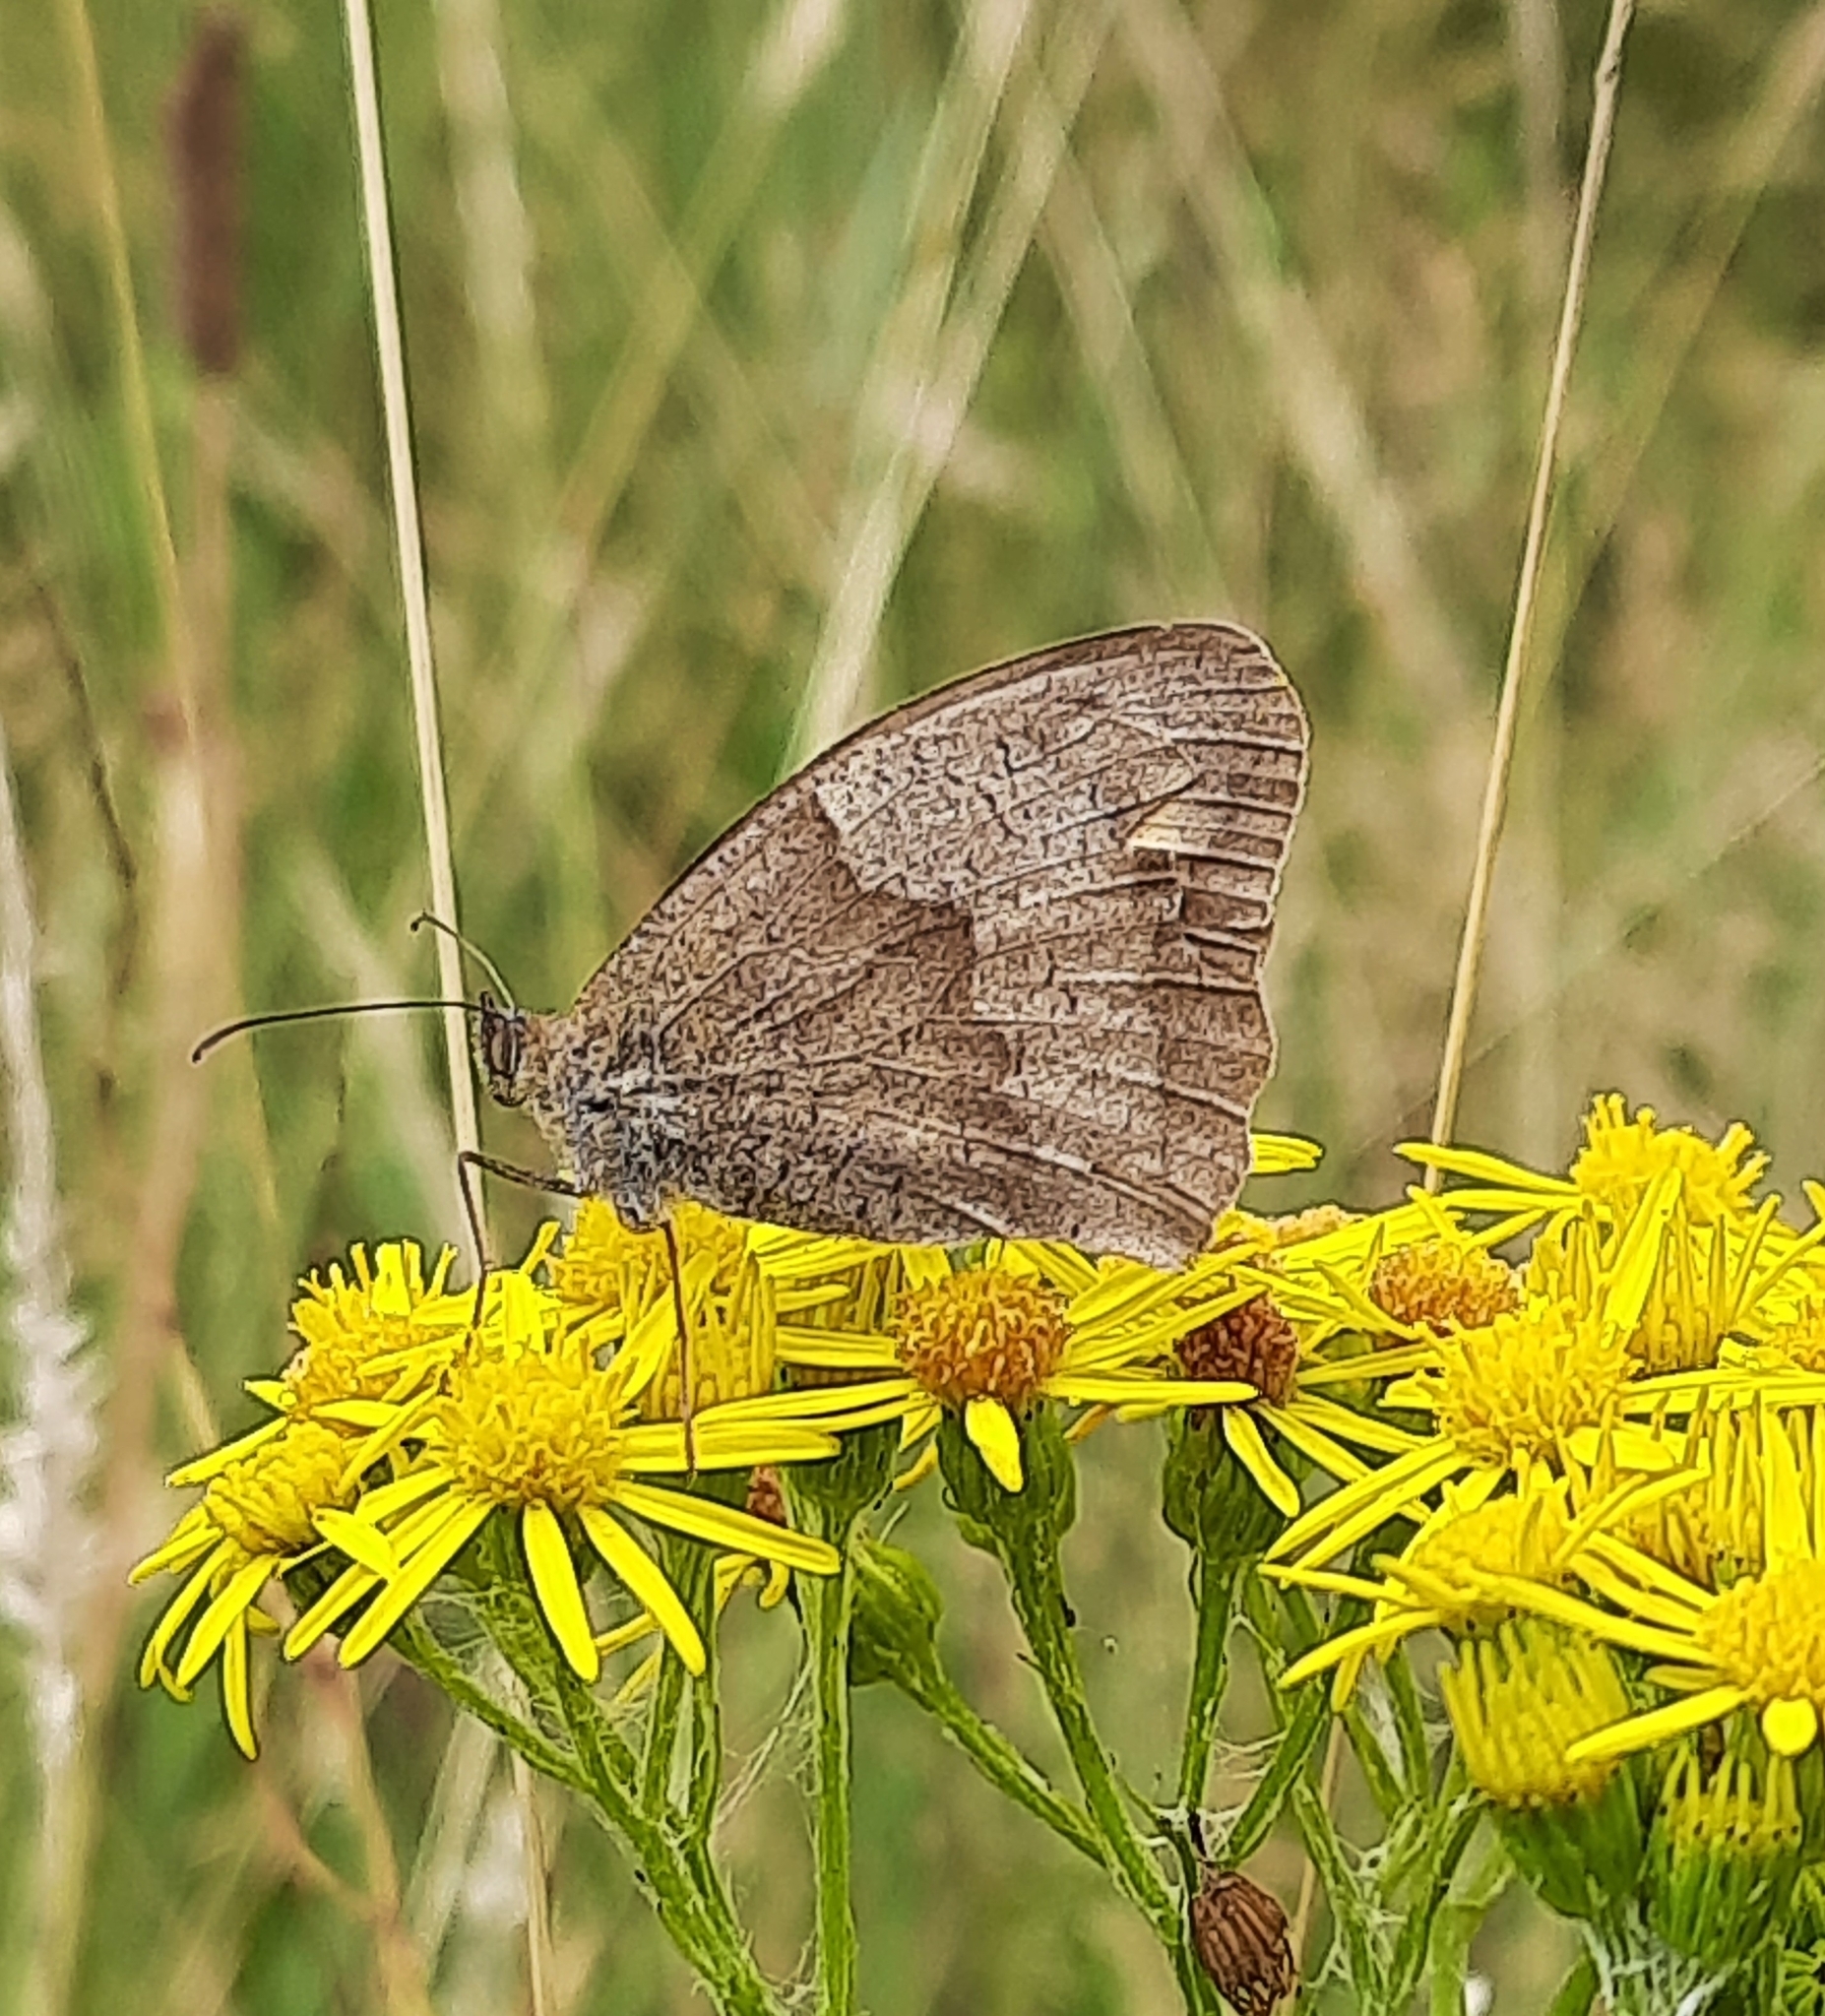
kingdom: Animalia
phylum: Arthropoda
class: Insecta
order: Lepidoptera
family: Nymphalidae
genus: Maniola
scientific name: Maniola jurtina
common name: Meadow brown
